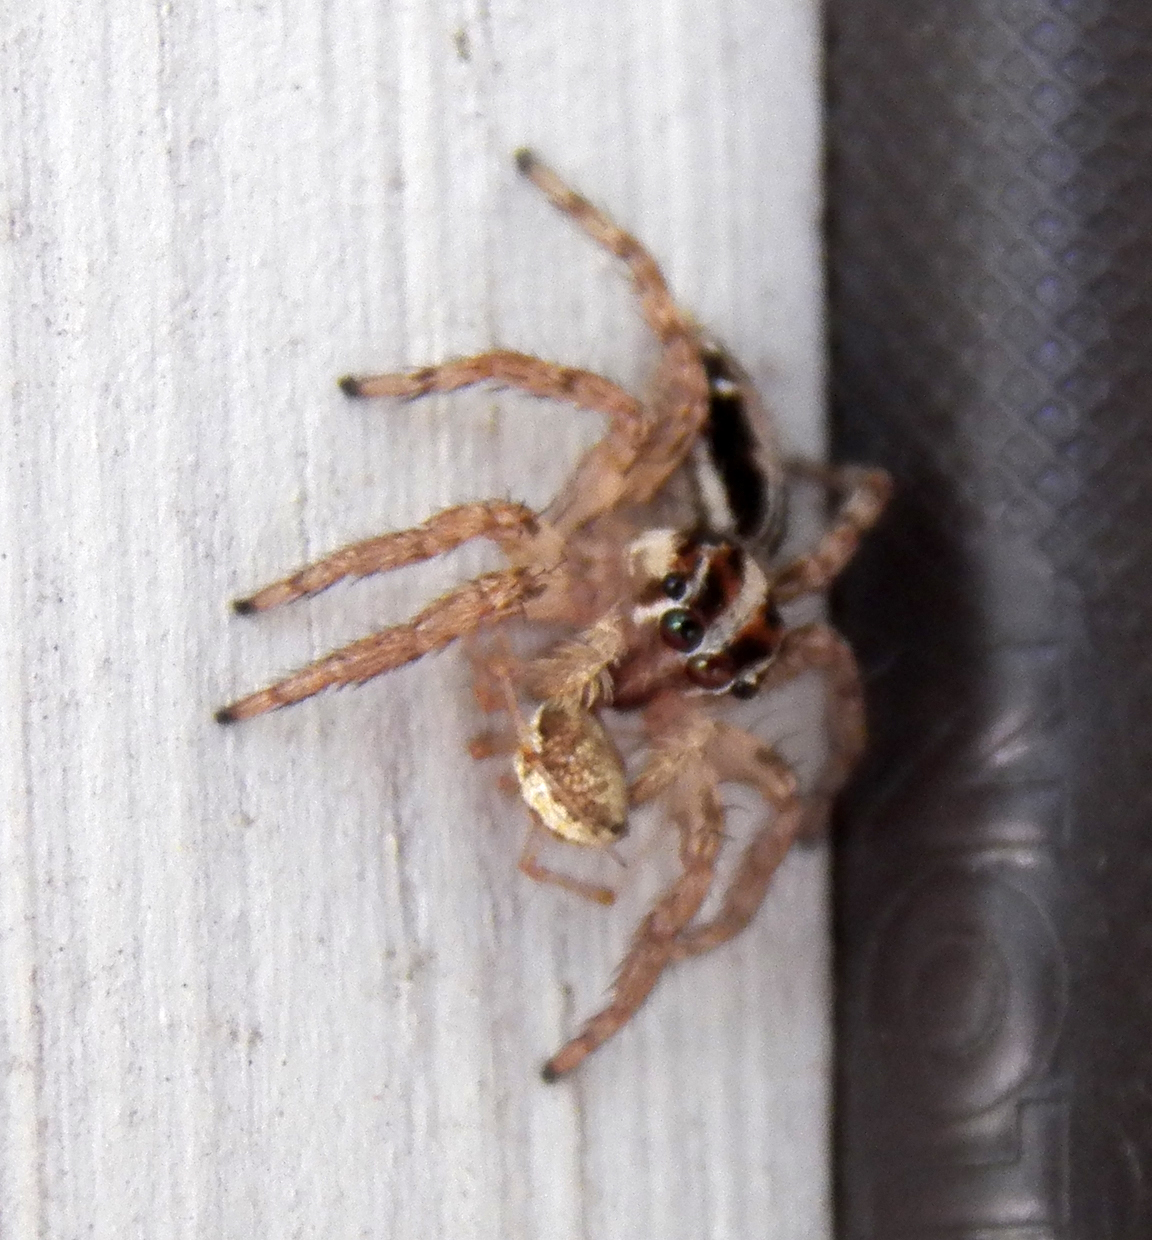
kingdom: Animalia
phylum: Arthropoda
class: Arachnida
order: Araneae
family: Salticidae
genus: Plexippus
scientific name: Plexippus paykulli
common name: Pantropical jumper
